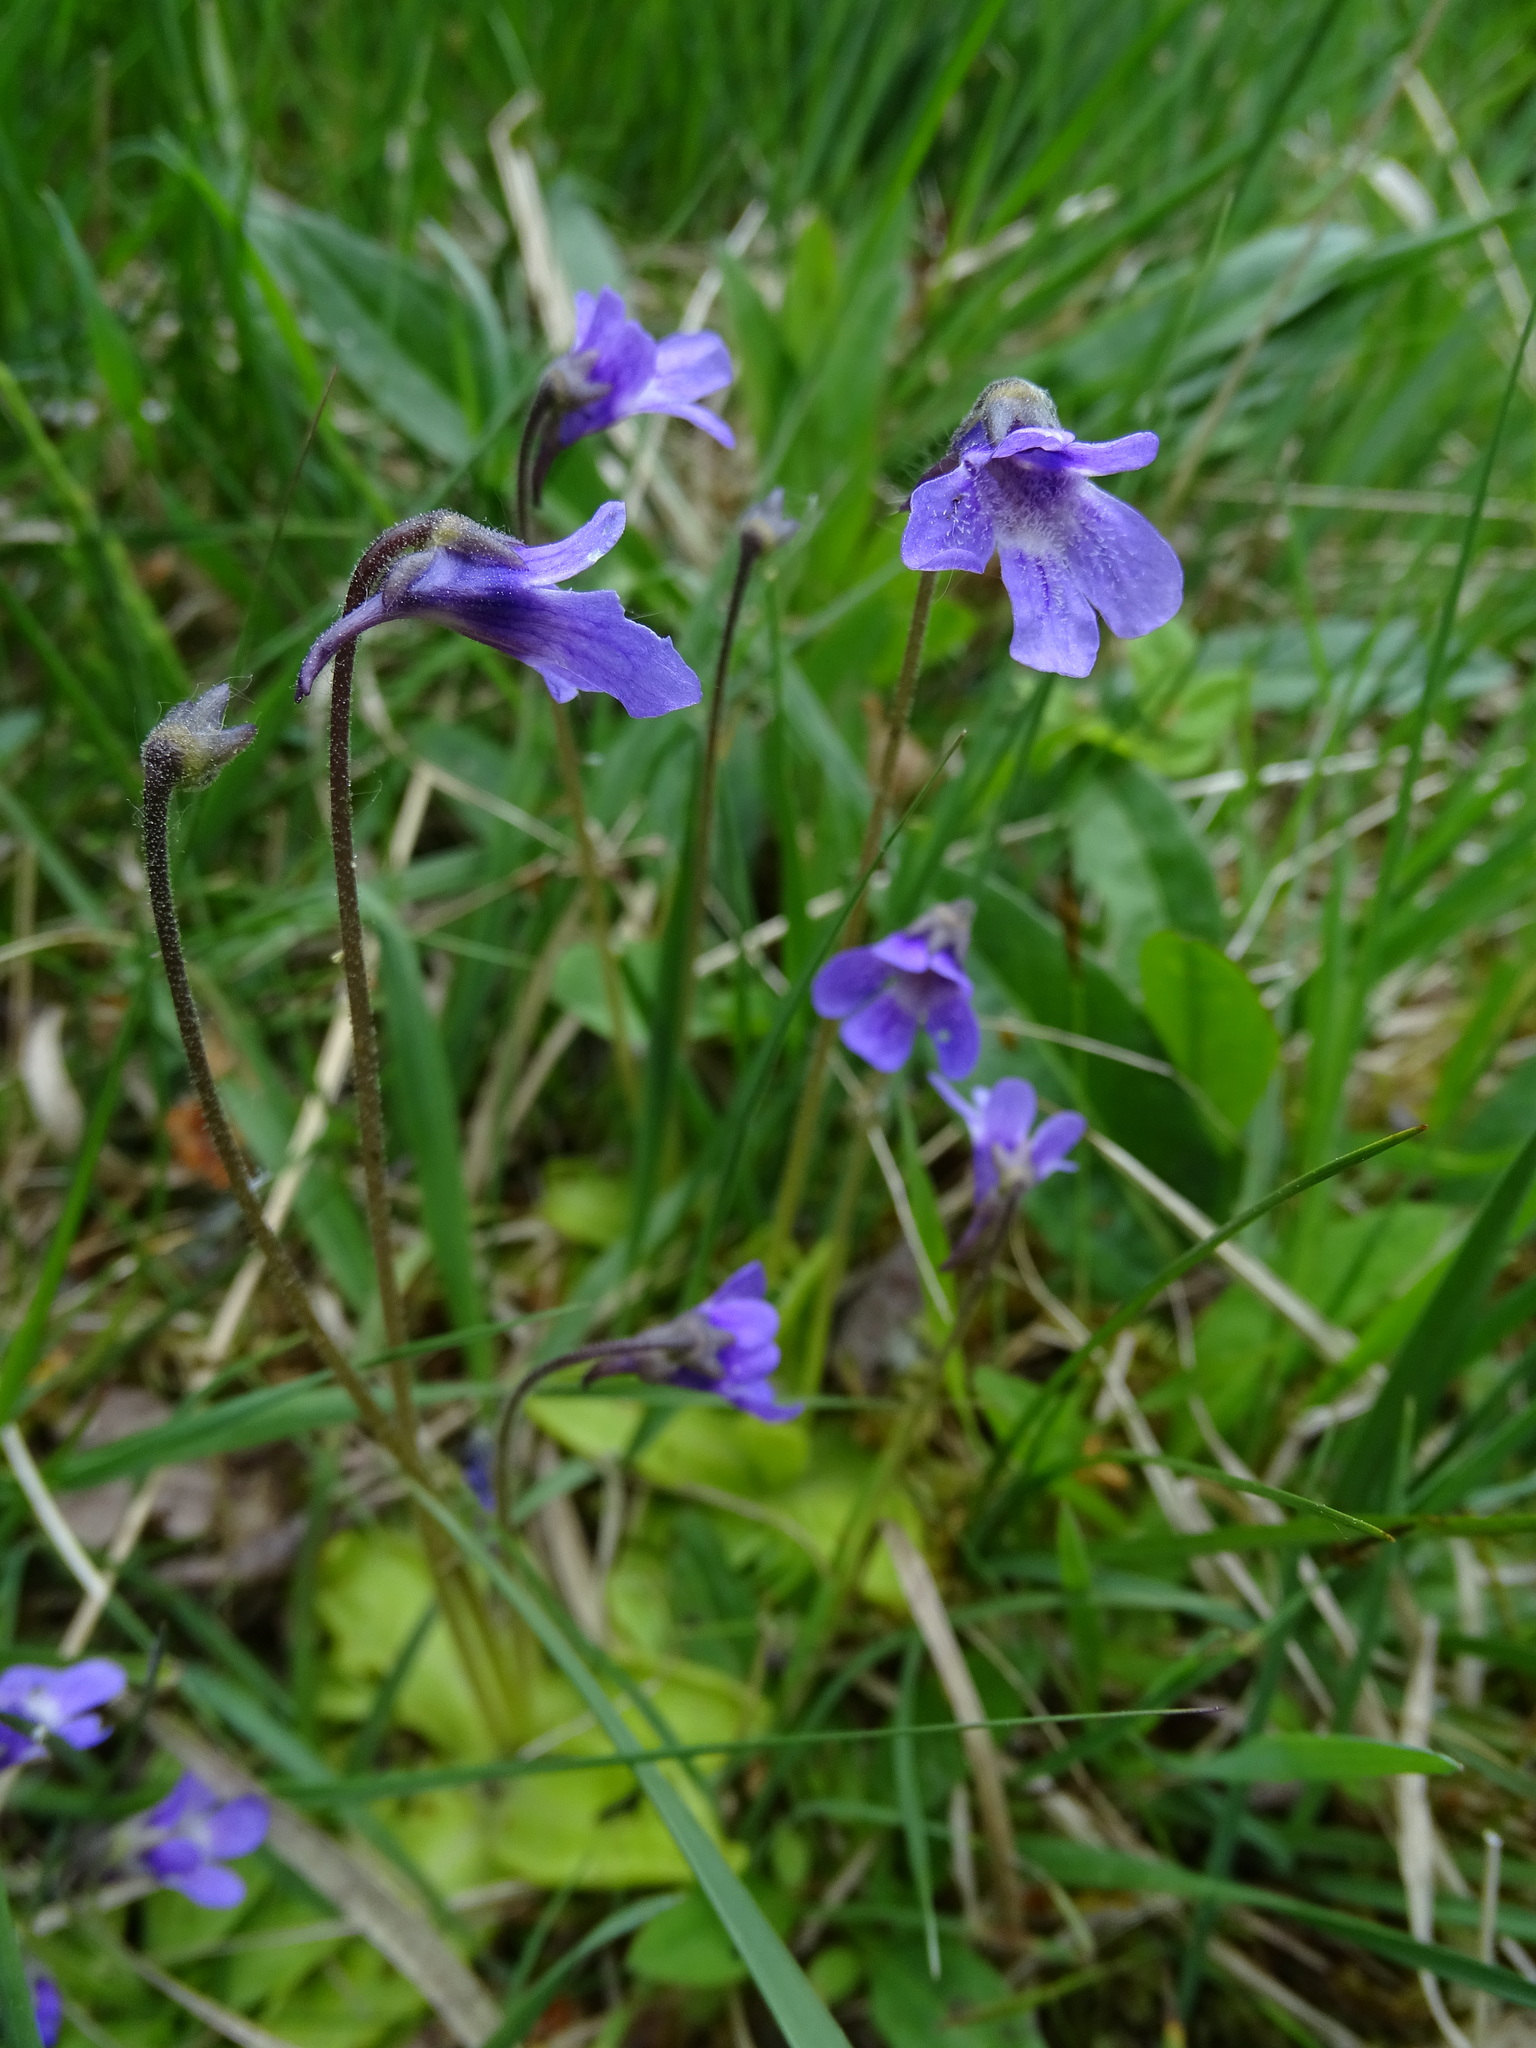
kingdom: Plantae
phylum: Tracheophyta
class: Magnoliopsida
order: Lamiales
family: Lentibulariaceae
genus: Pinguicula
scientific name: Pinguicula vulgaris
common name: Common butterwort
